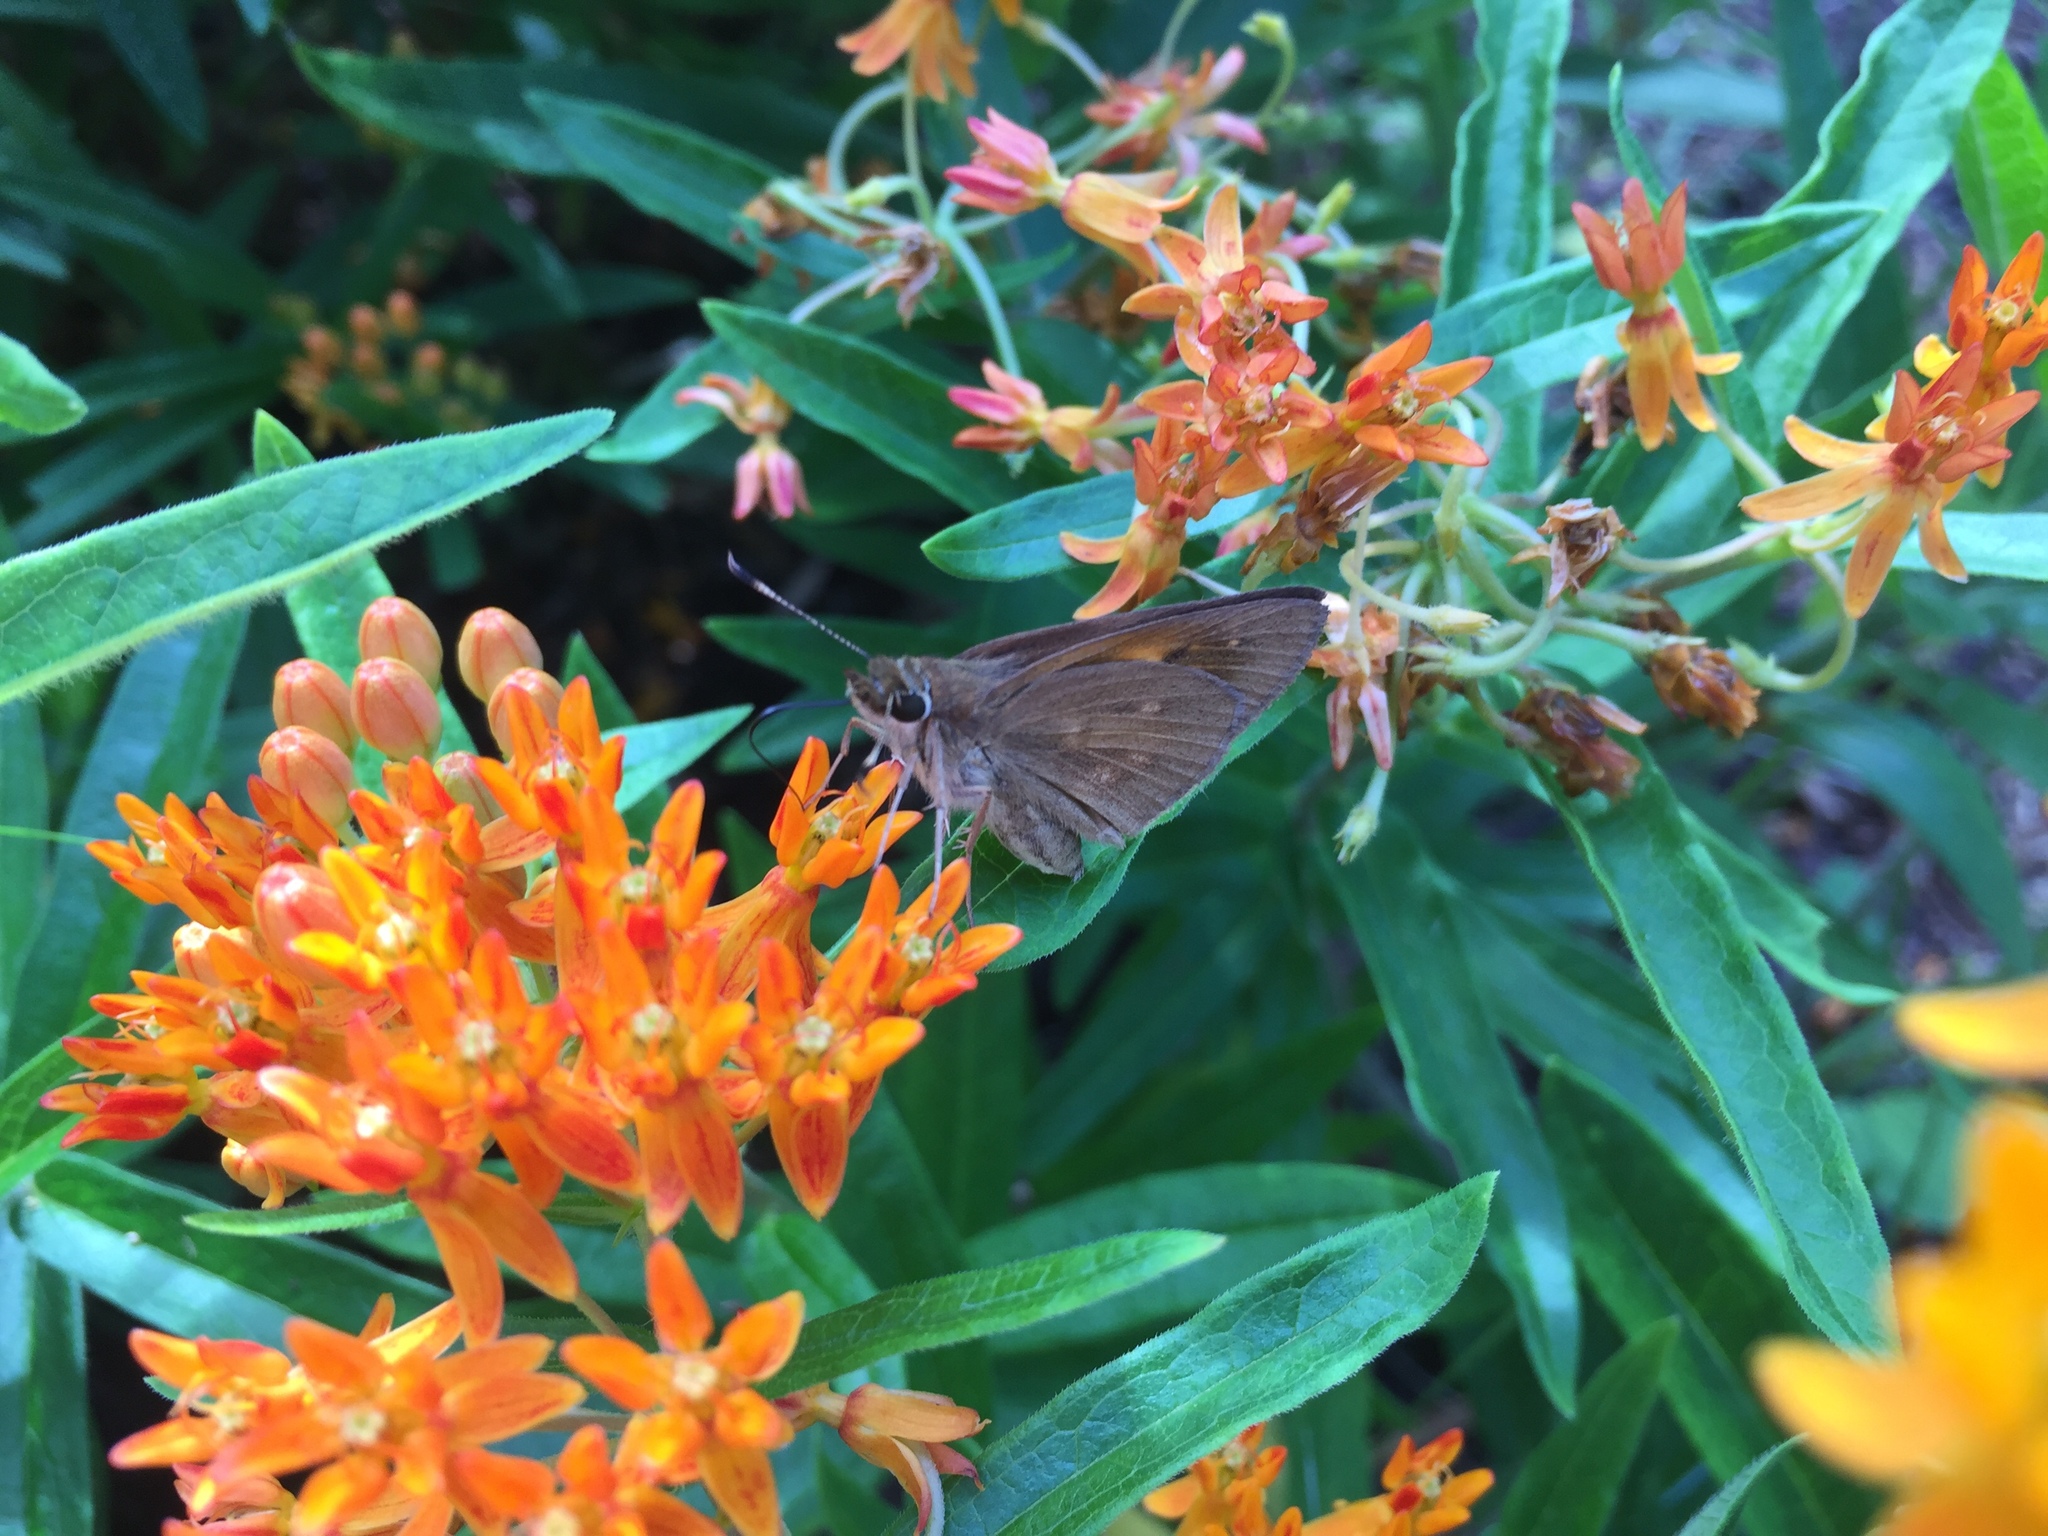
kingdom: Animalia
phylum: Arthropoda
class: Insecta
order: Lepidoptera
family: Hesperiidae
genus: Poanes
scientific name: Poanes viator
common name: Broad-winged skipper
